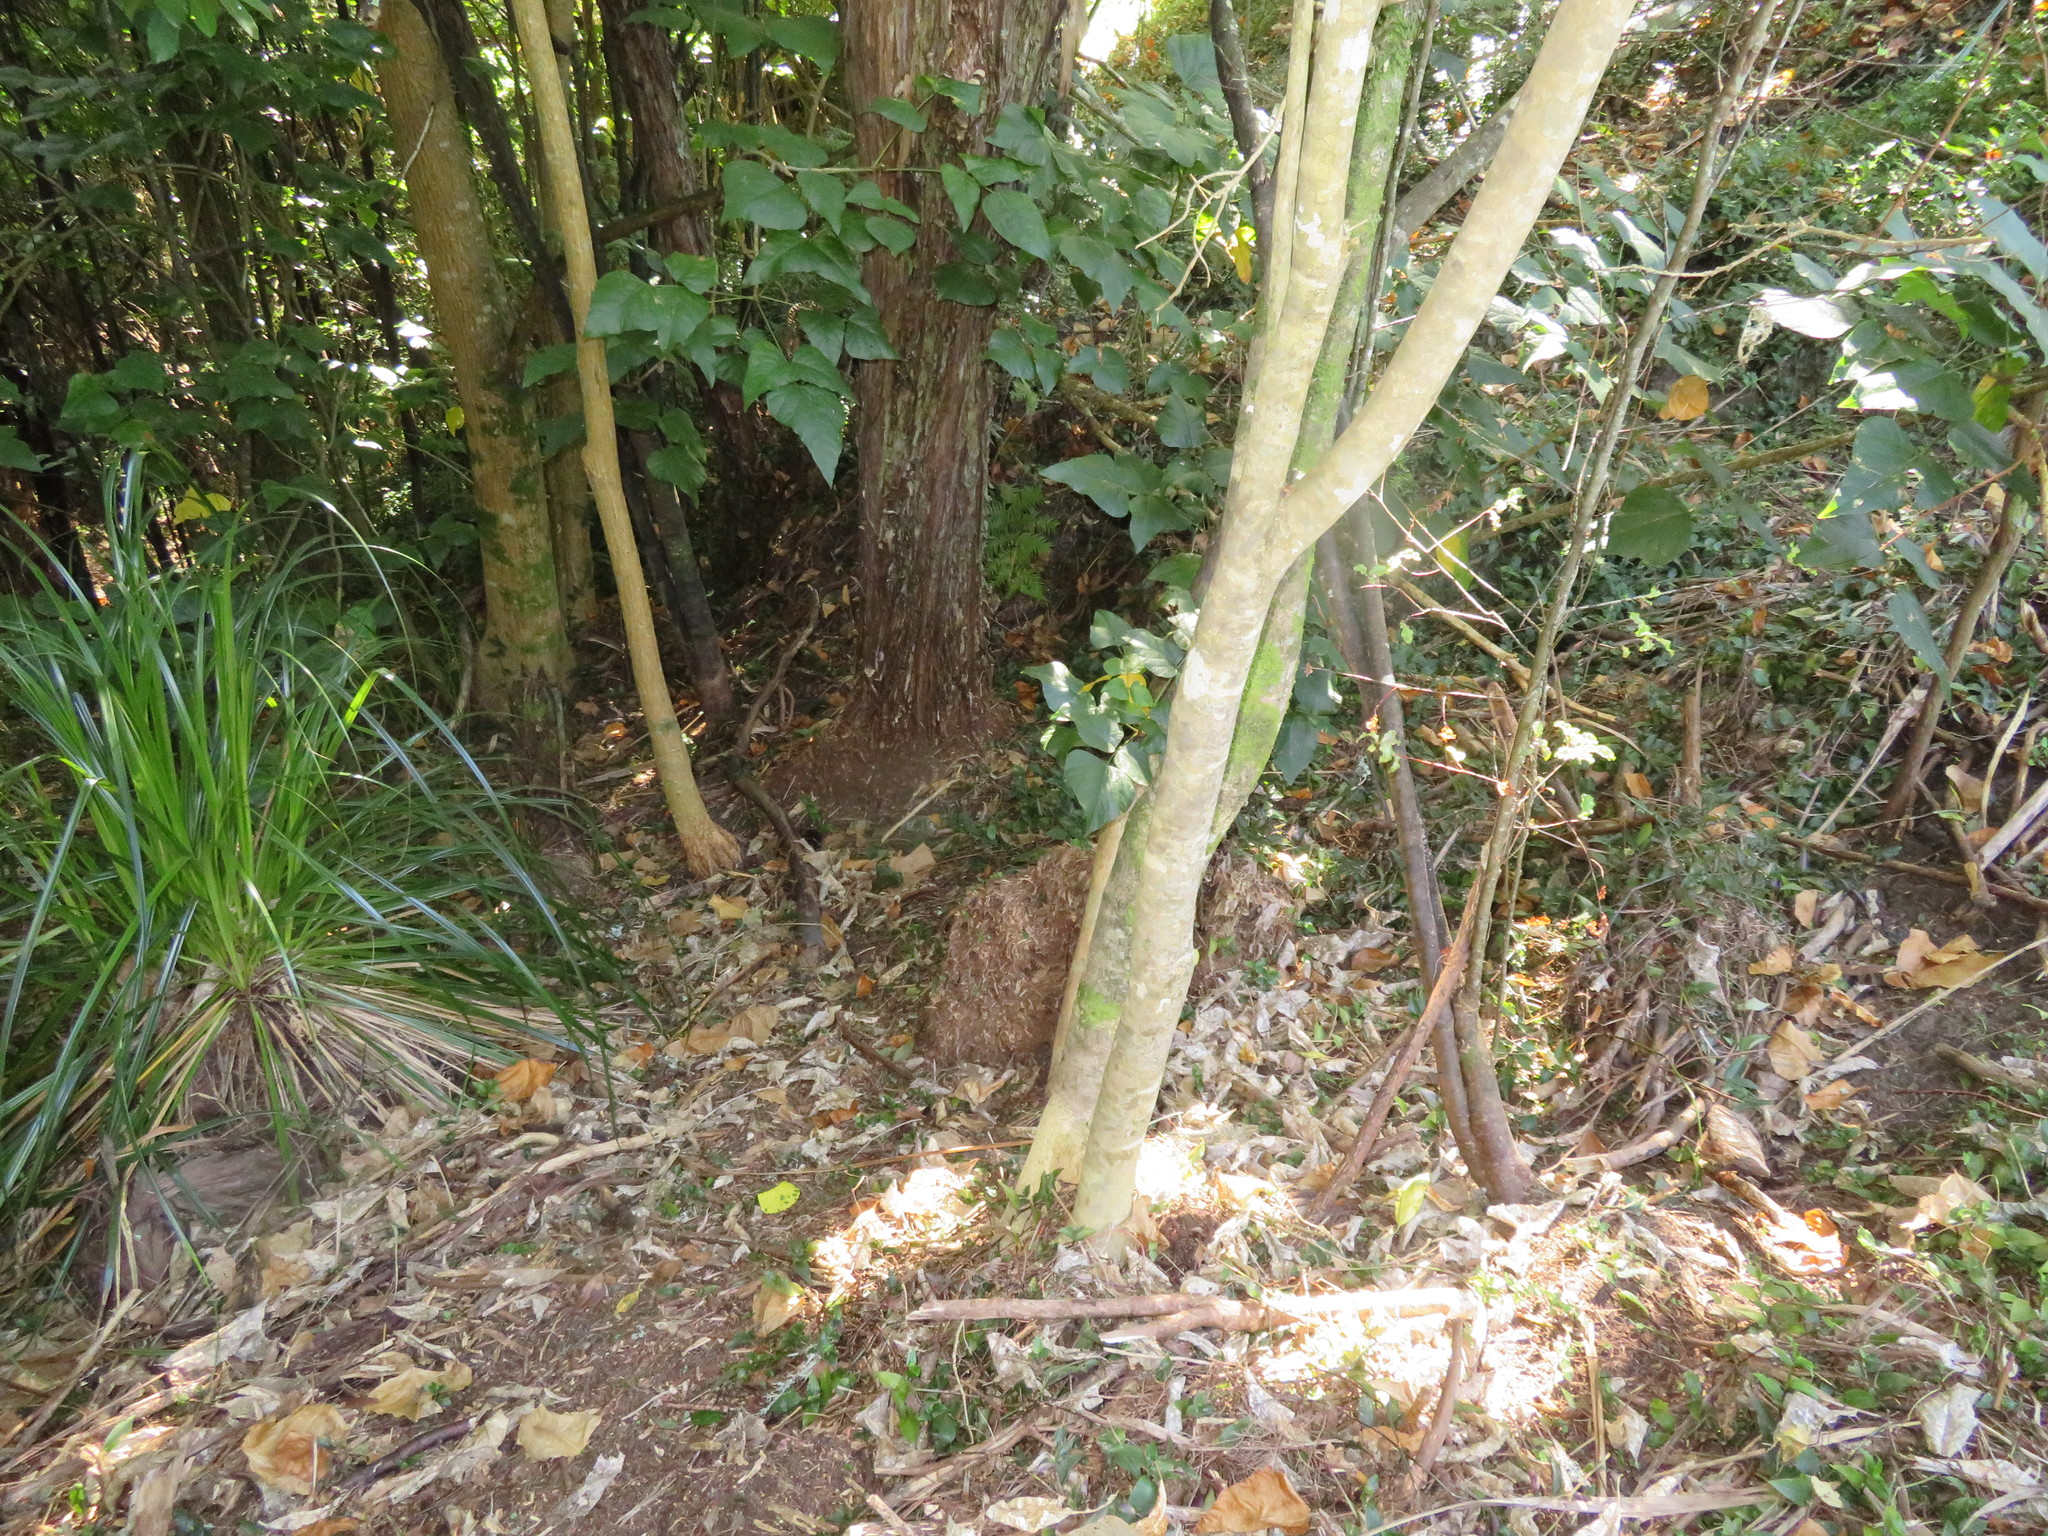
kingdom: Plantae
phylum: Tracheophyta
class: Magnoliopsida
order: Malpighiales
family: Violaceae
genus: Melicytus
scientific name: Melicytus ramiflorus
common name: Mahoe
